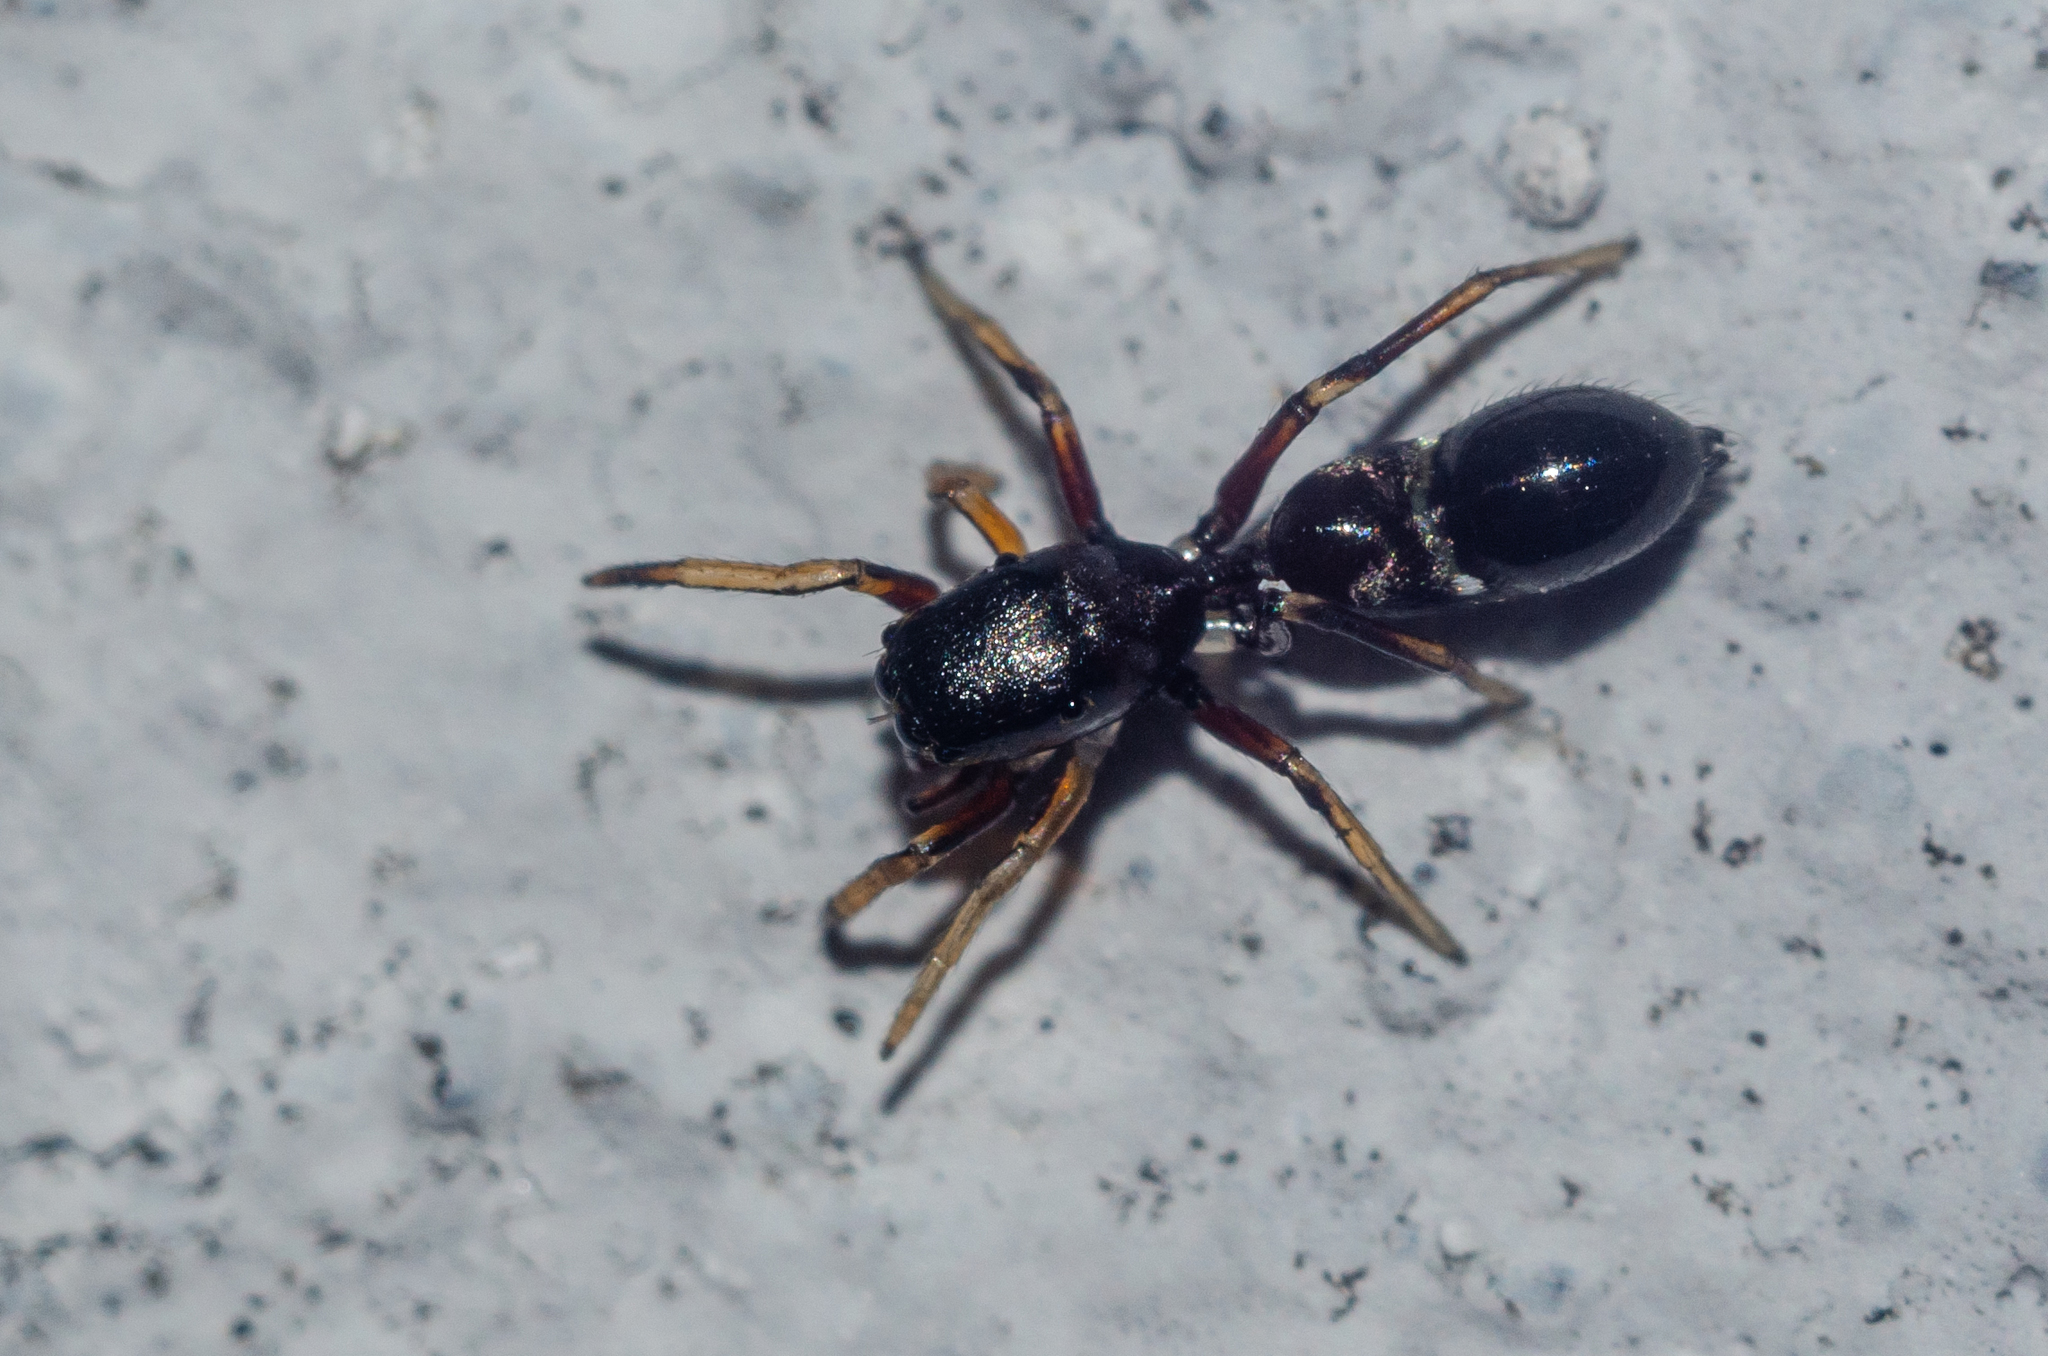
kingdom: Animalia
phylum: Arthropoda
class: Arachnida
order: Araneae
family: Salticidae
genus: Leptorchestes
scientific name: Leptorchestes berolinensis
